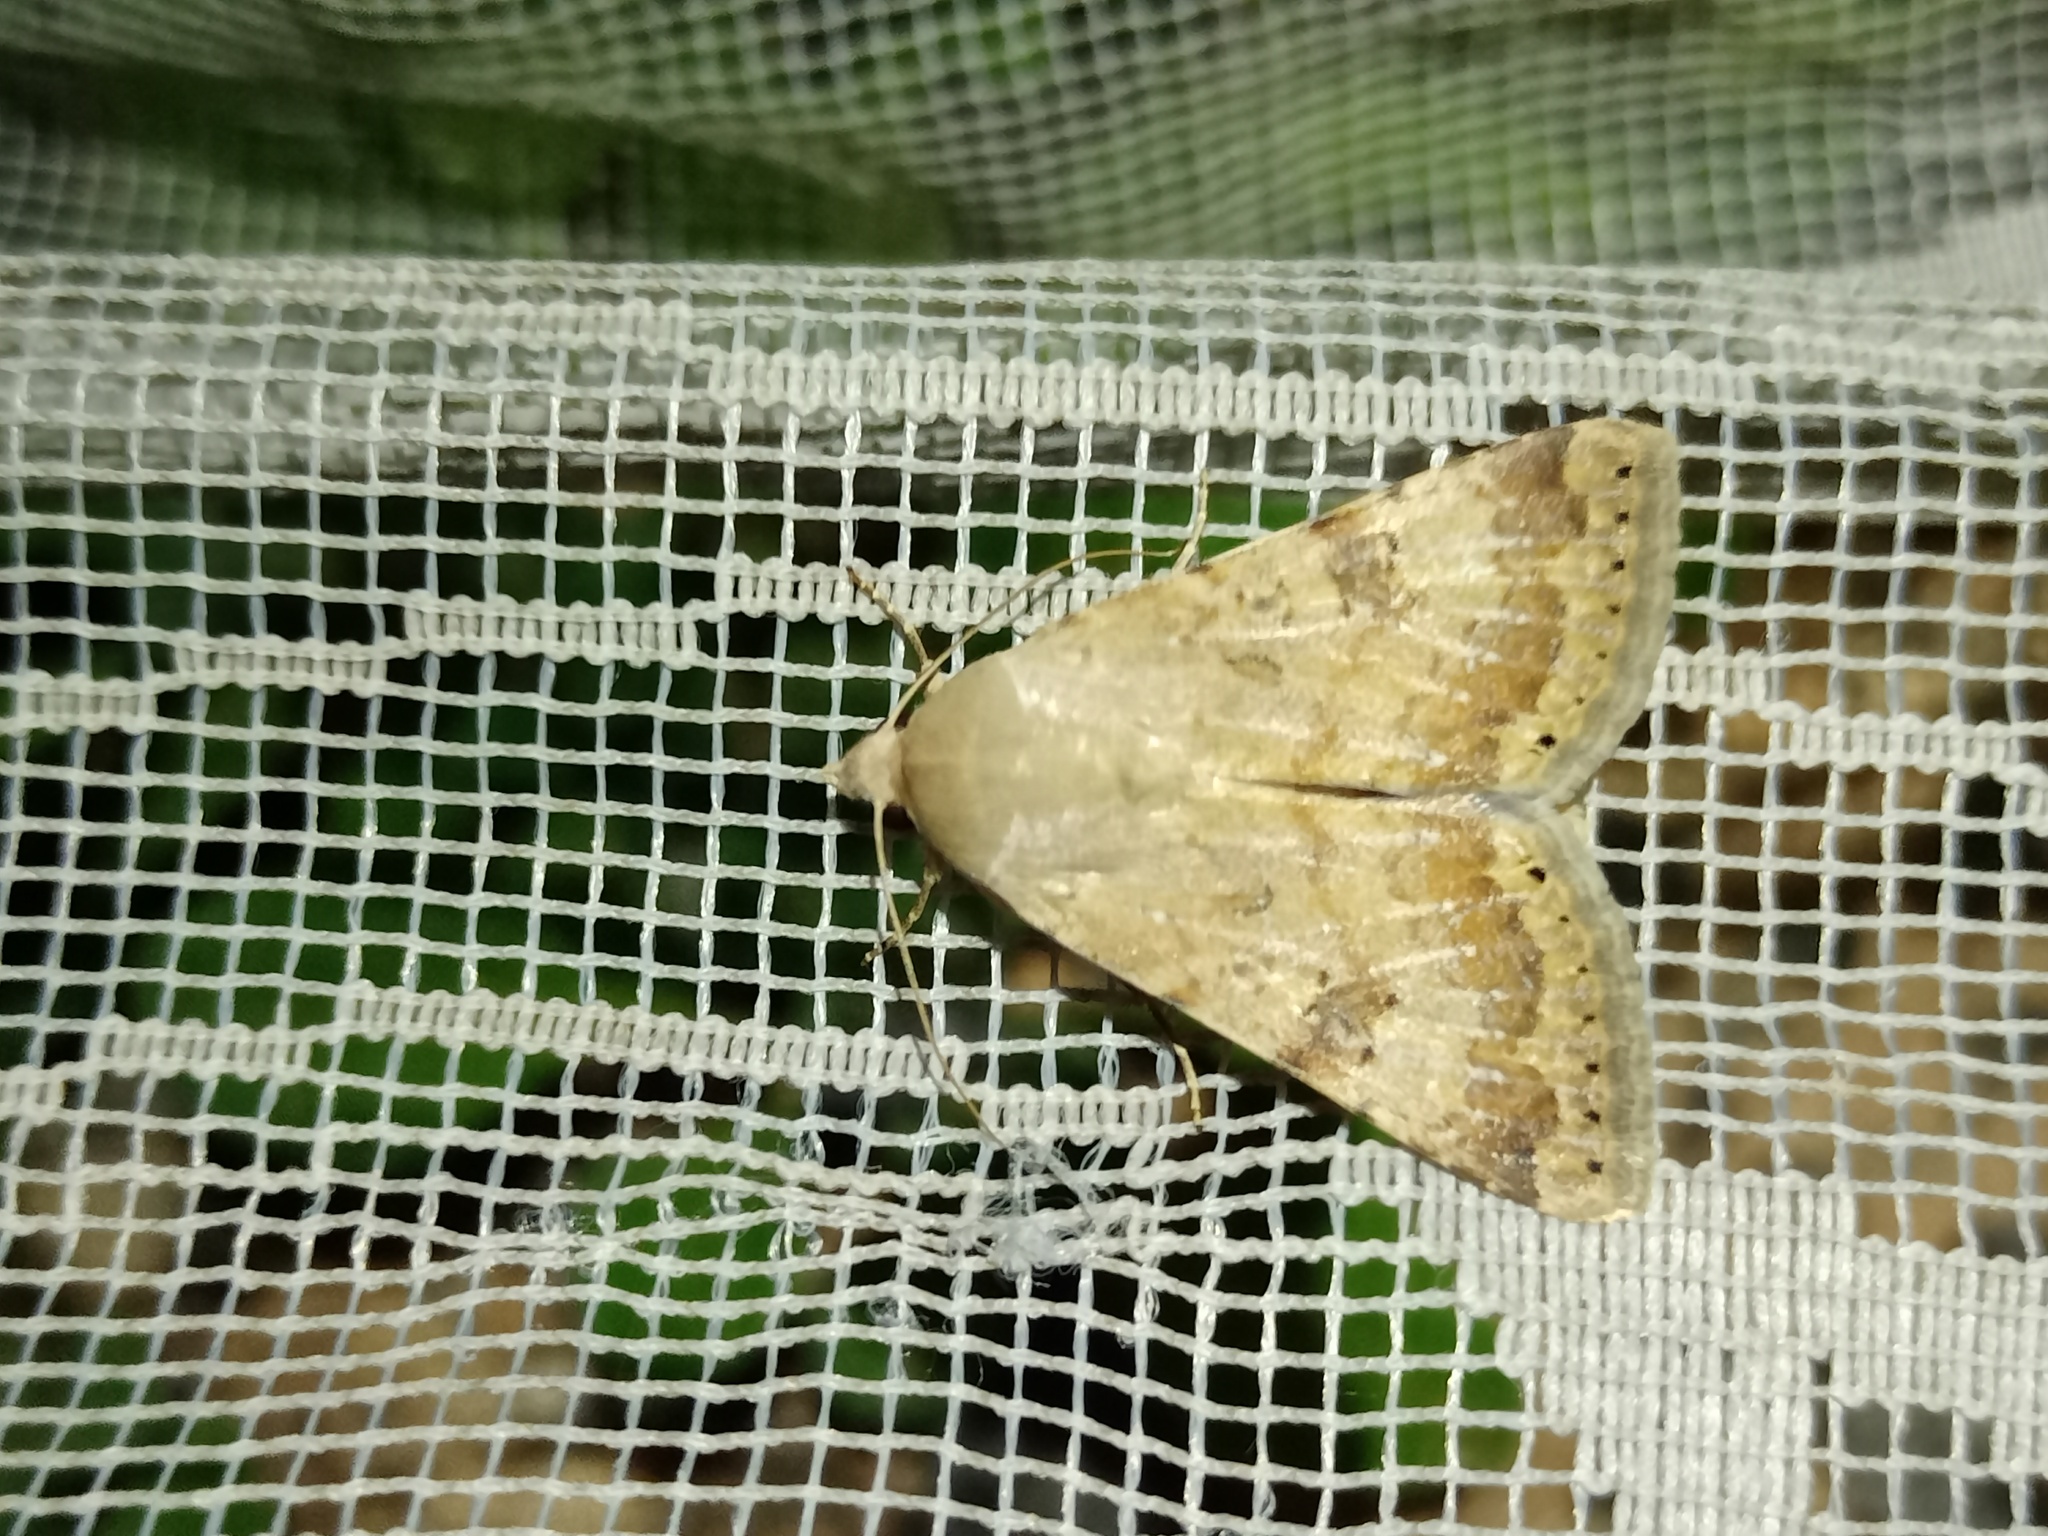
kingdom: Animalia
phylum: Arthropoda
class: Insecta
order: Lepidoptera
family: Noctuidae
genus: Heliothis
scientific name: Heliothis nubigera
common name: Eastern bordered straw
